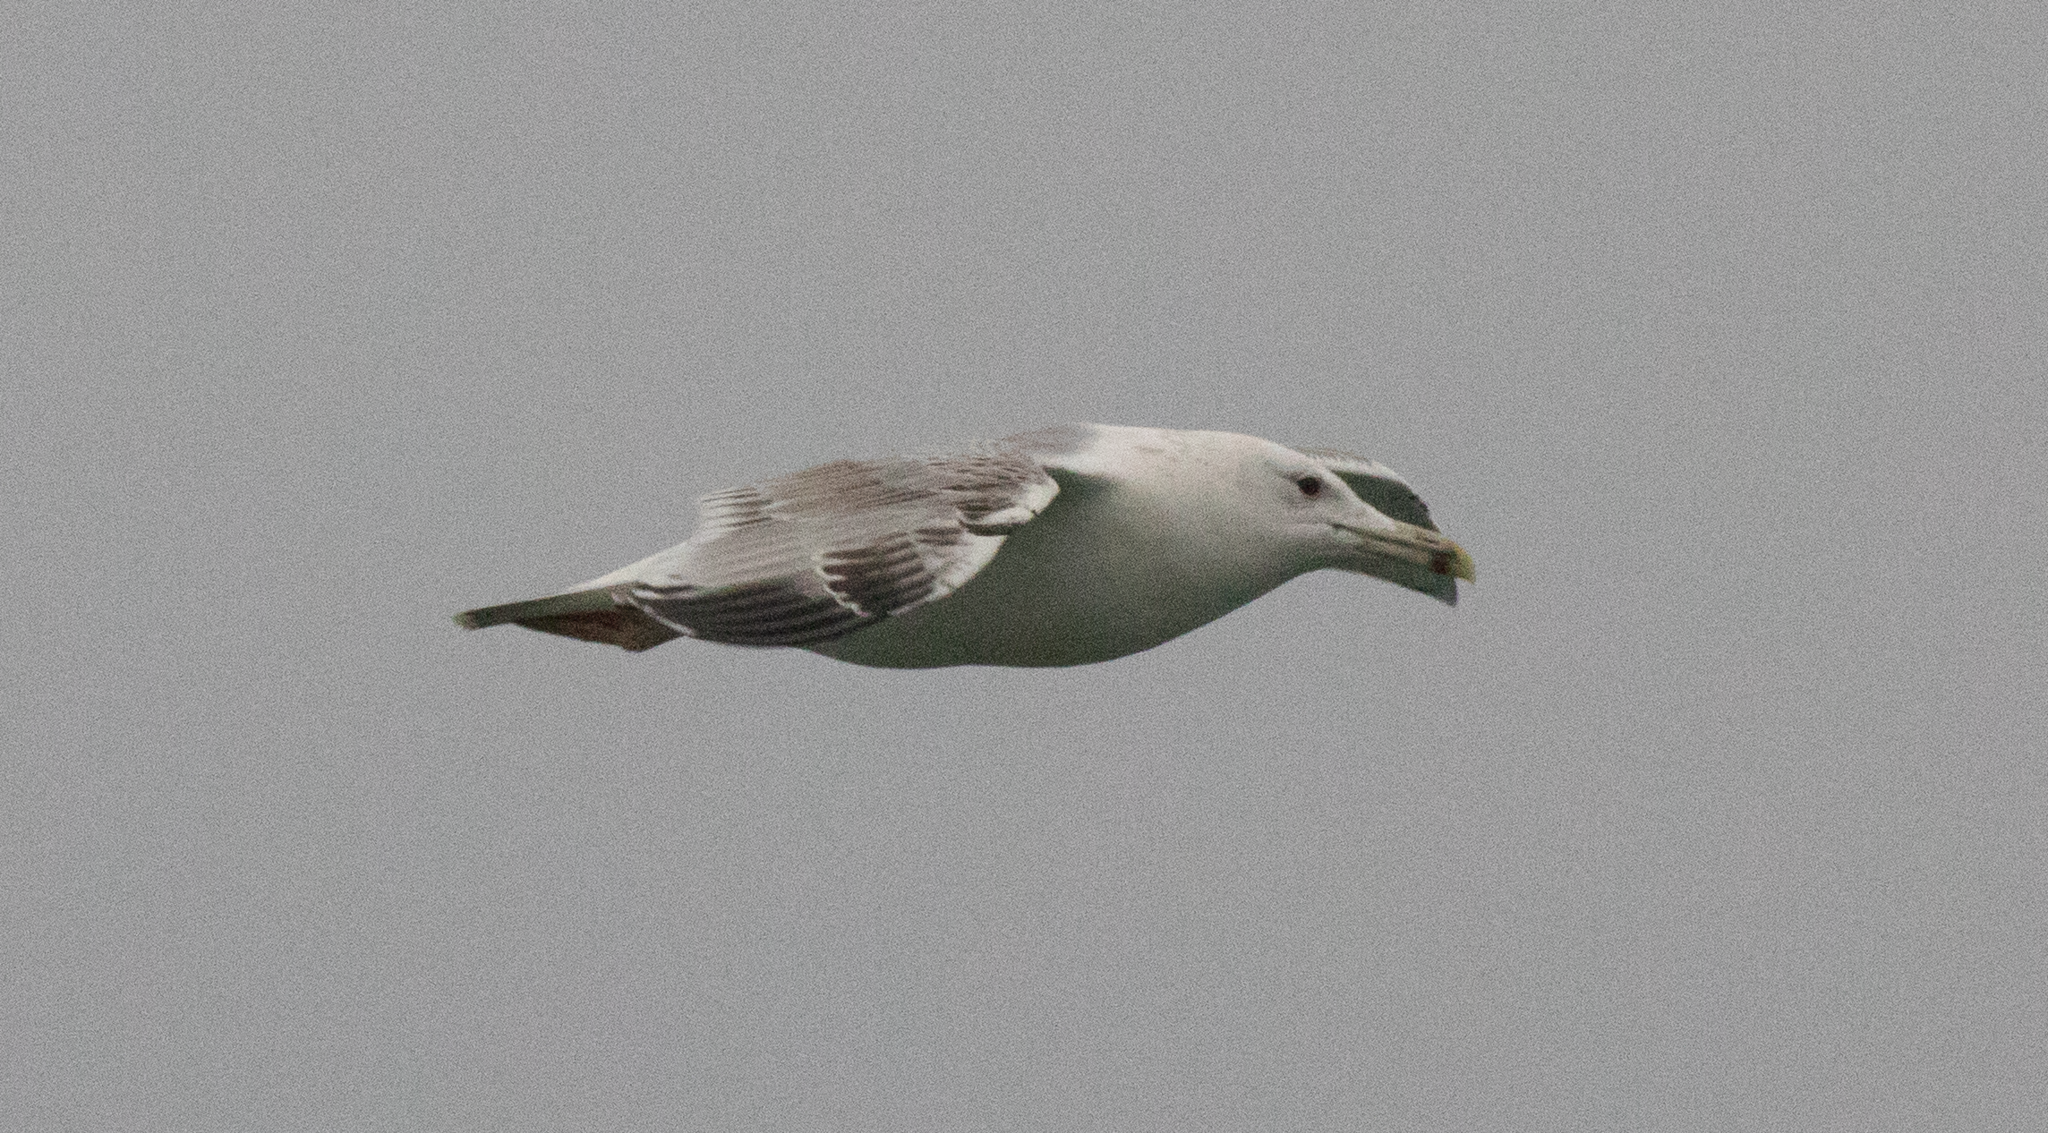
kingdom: Animalia
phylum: Chordata
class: Aves
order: Charadriiformes
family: Laridae
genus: Larus
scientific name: Larus cachinnans
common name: Caspian gull
